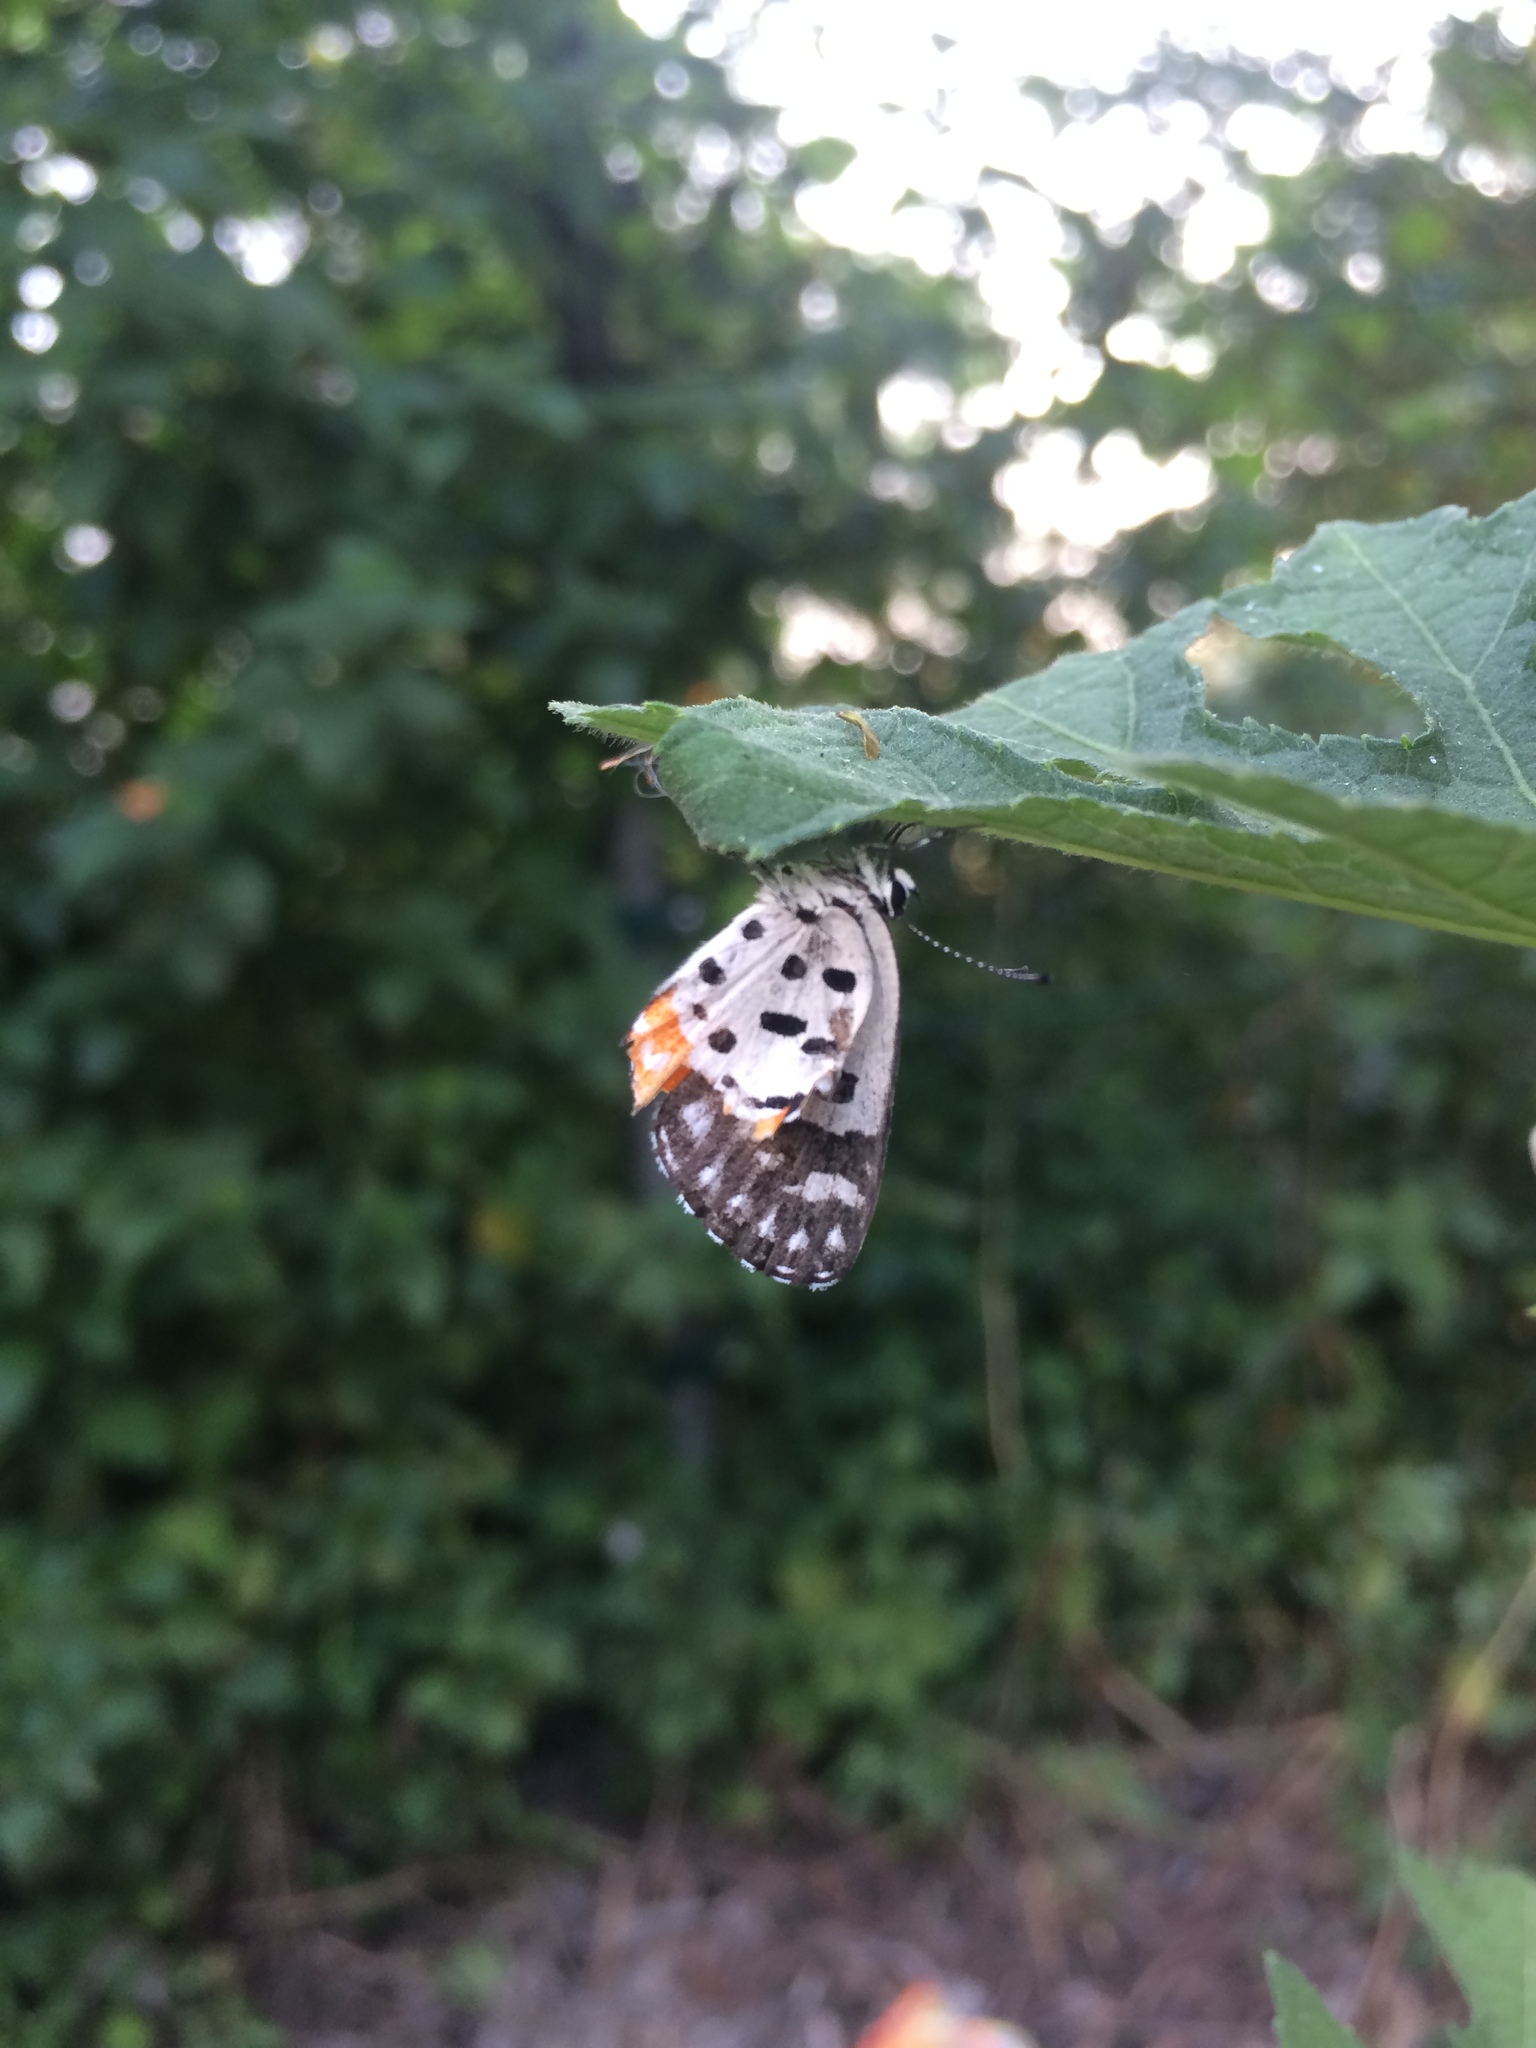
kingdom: Animalia
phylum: Arthropoda
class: Insecta
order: Lepidoptera
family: Lycaenidae
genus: Talicada
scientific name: Talicada nyseus
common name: Red pierrot
